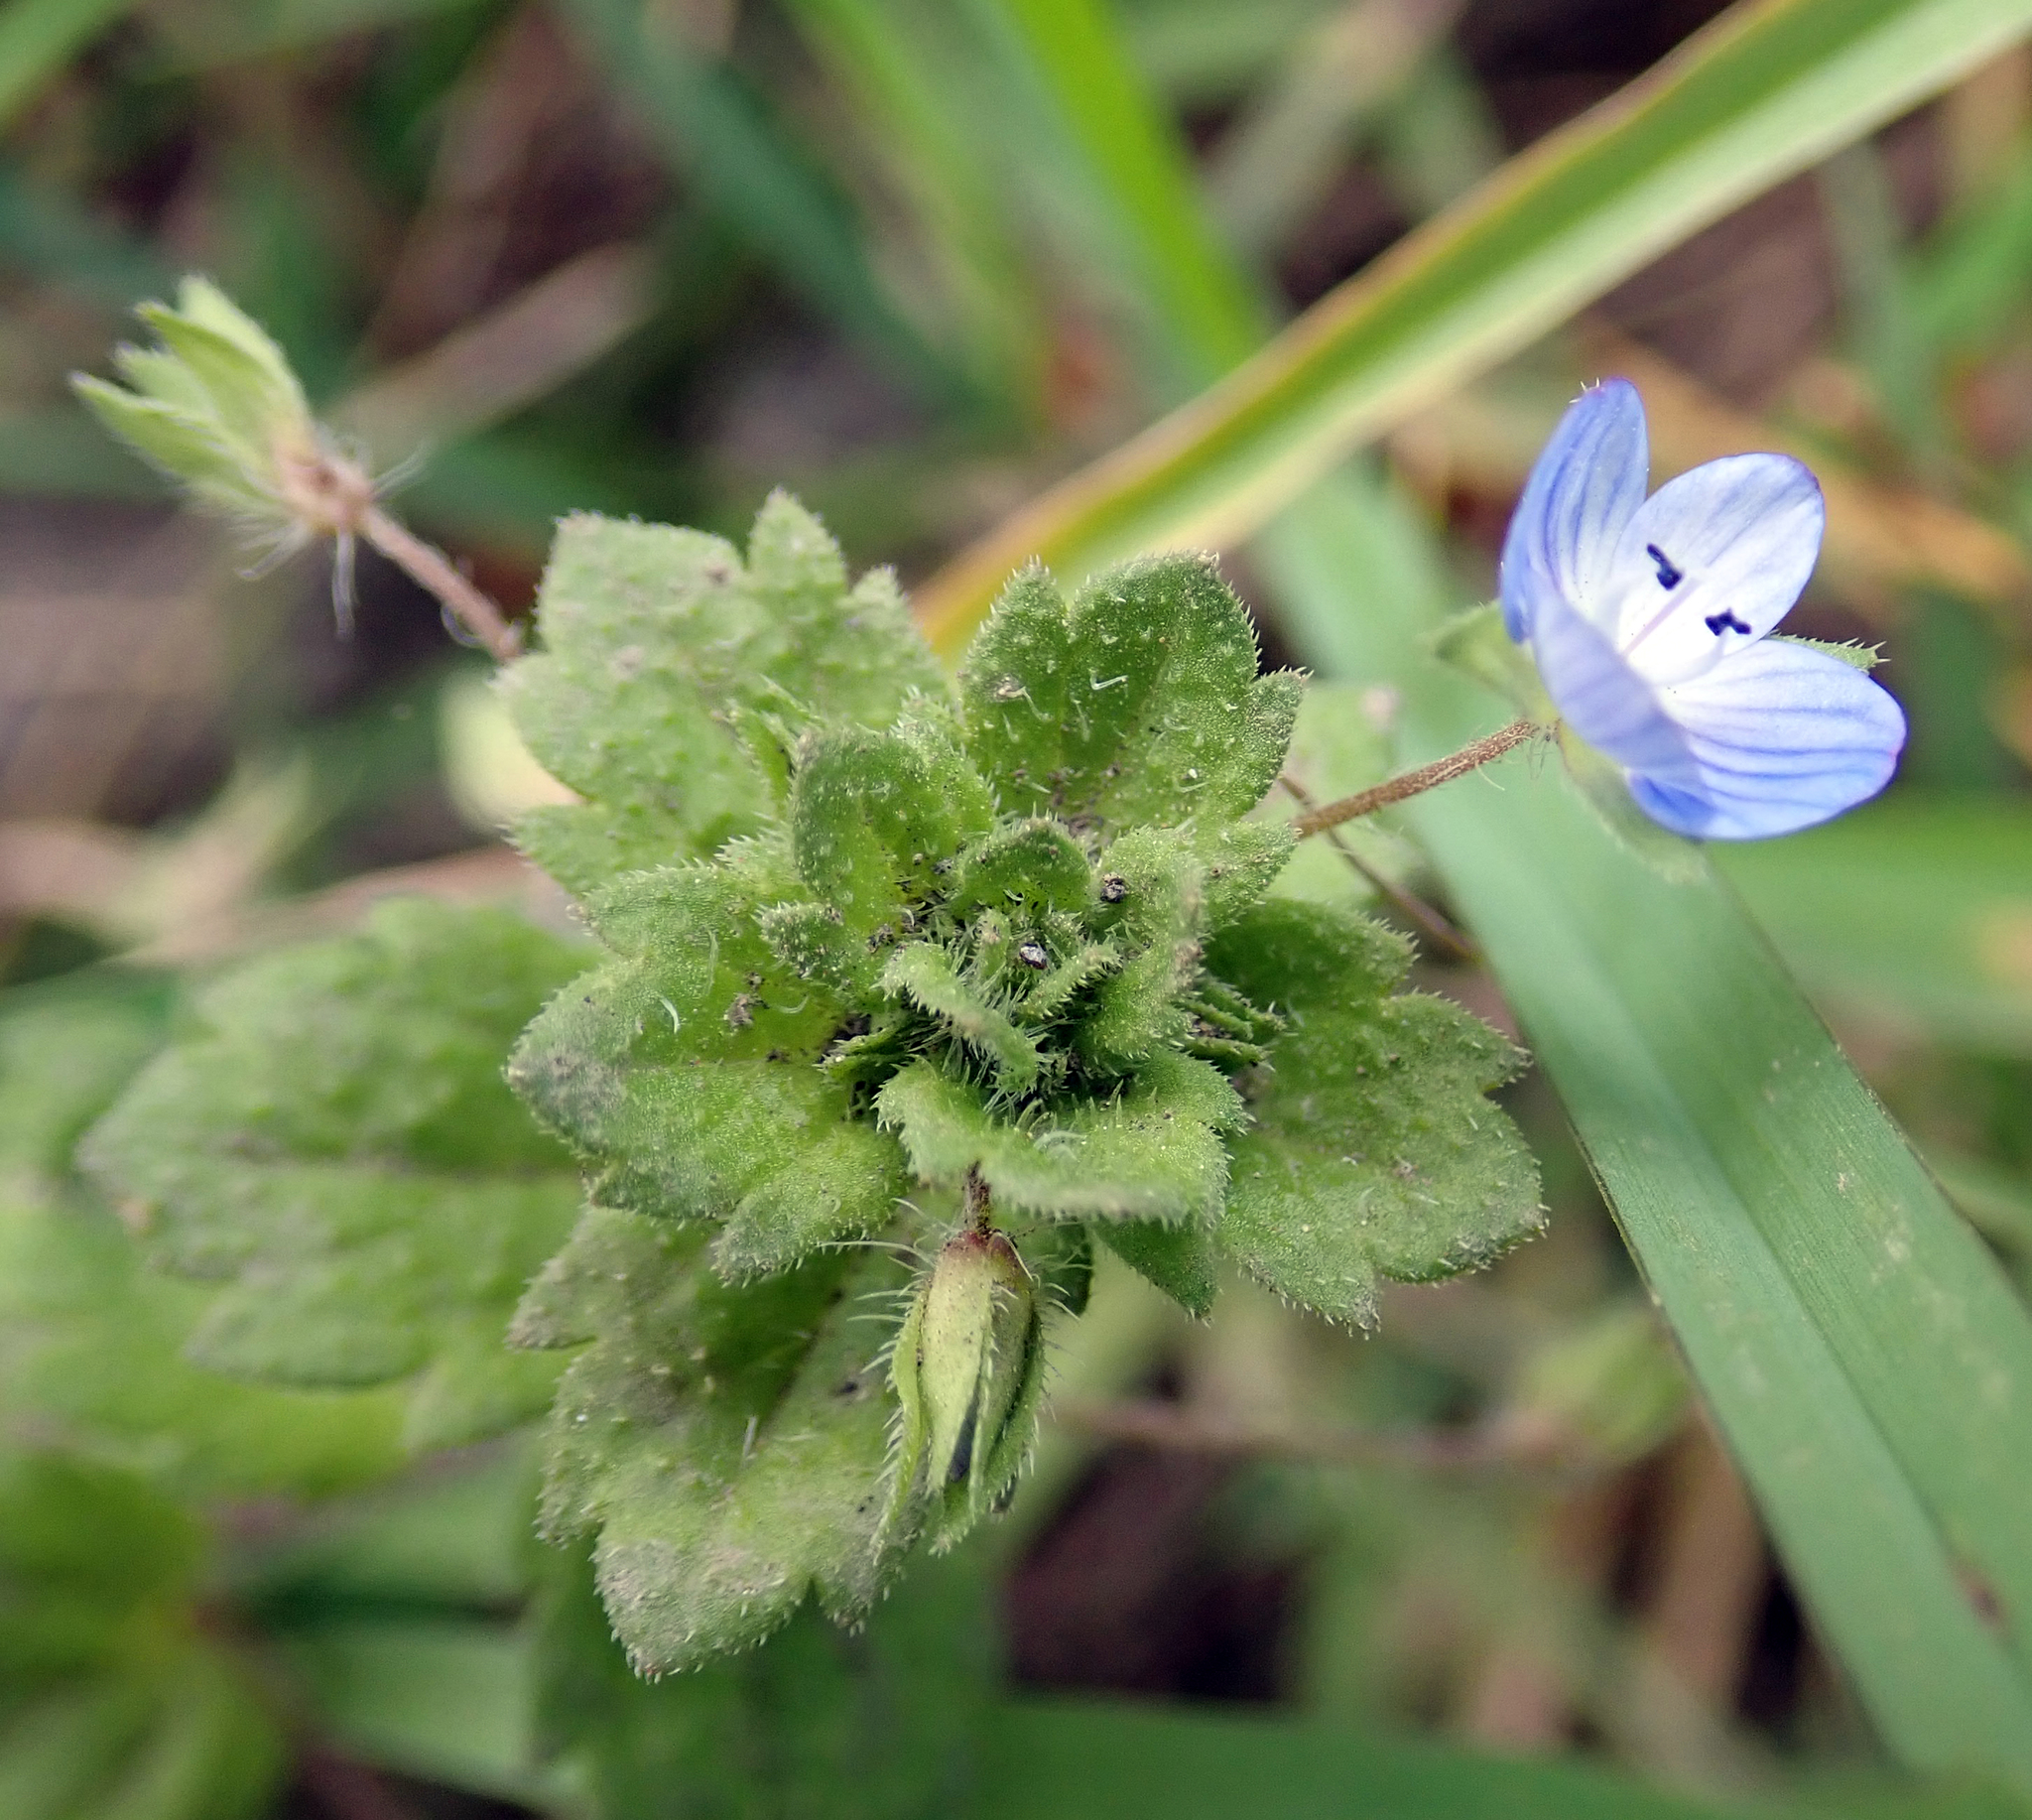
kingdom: Plantae
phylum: Tracheophyta
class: Magnoliopsida
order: Lamiales
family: Plantaginaceae
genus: Veronica
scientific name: Veronica persica
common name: Common field-speedwell
